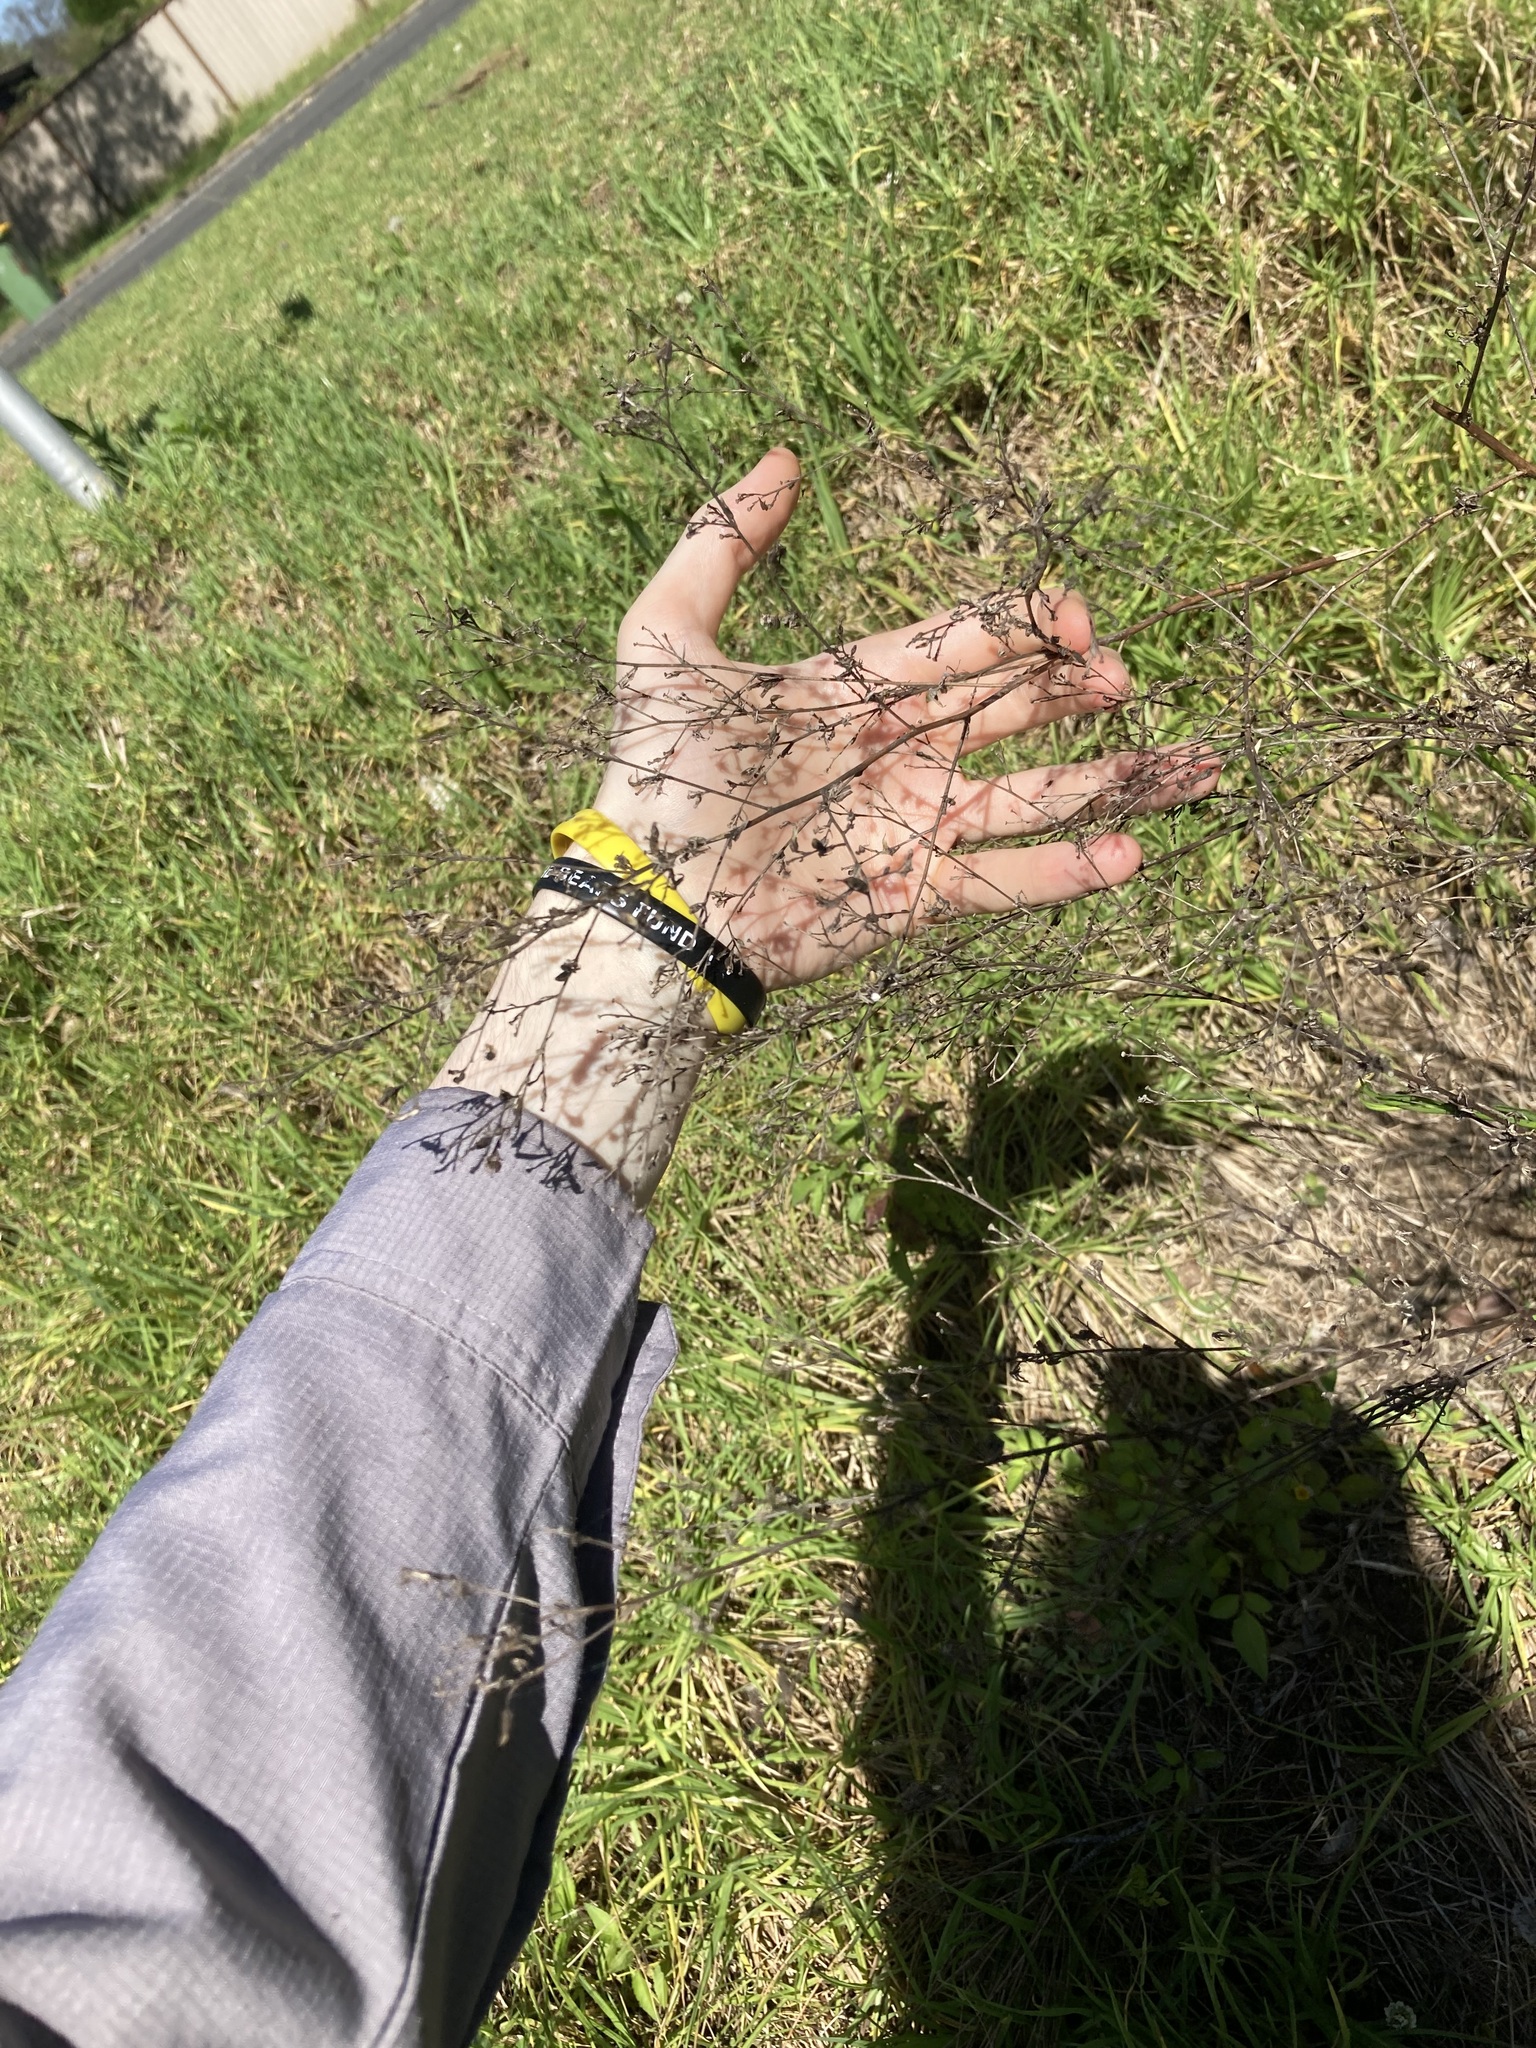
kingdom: Plantae
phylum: Tracheophyta
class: Magnoliopsida
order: Asterales
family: Asteraceae
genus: Symphyotrichum
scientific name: Symphyotrichum subulatum
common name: Annual saltmarsh aster
